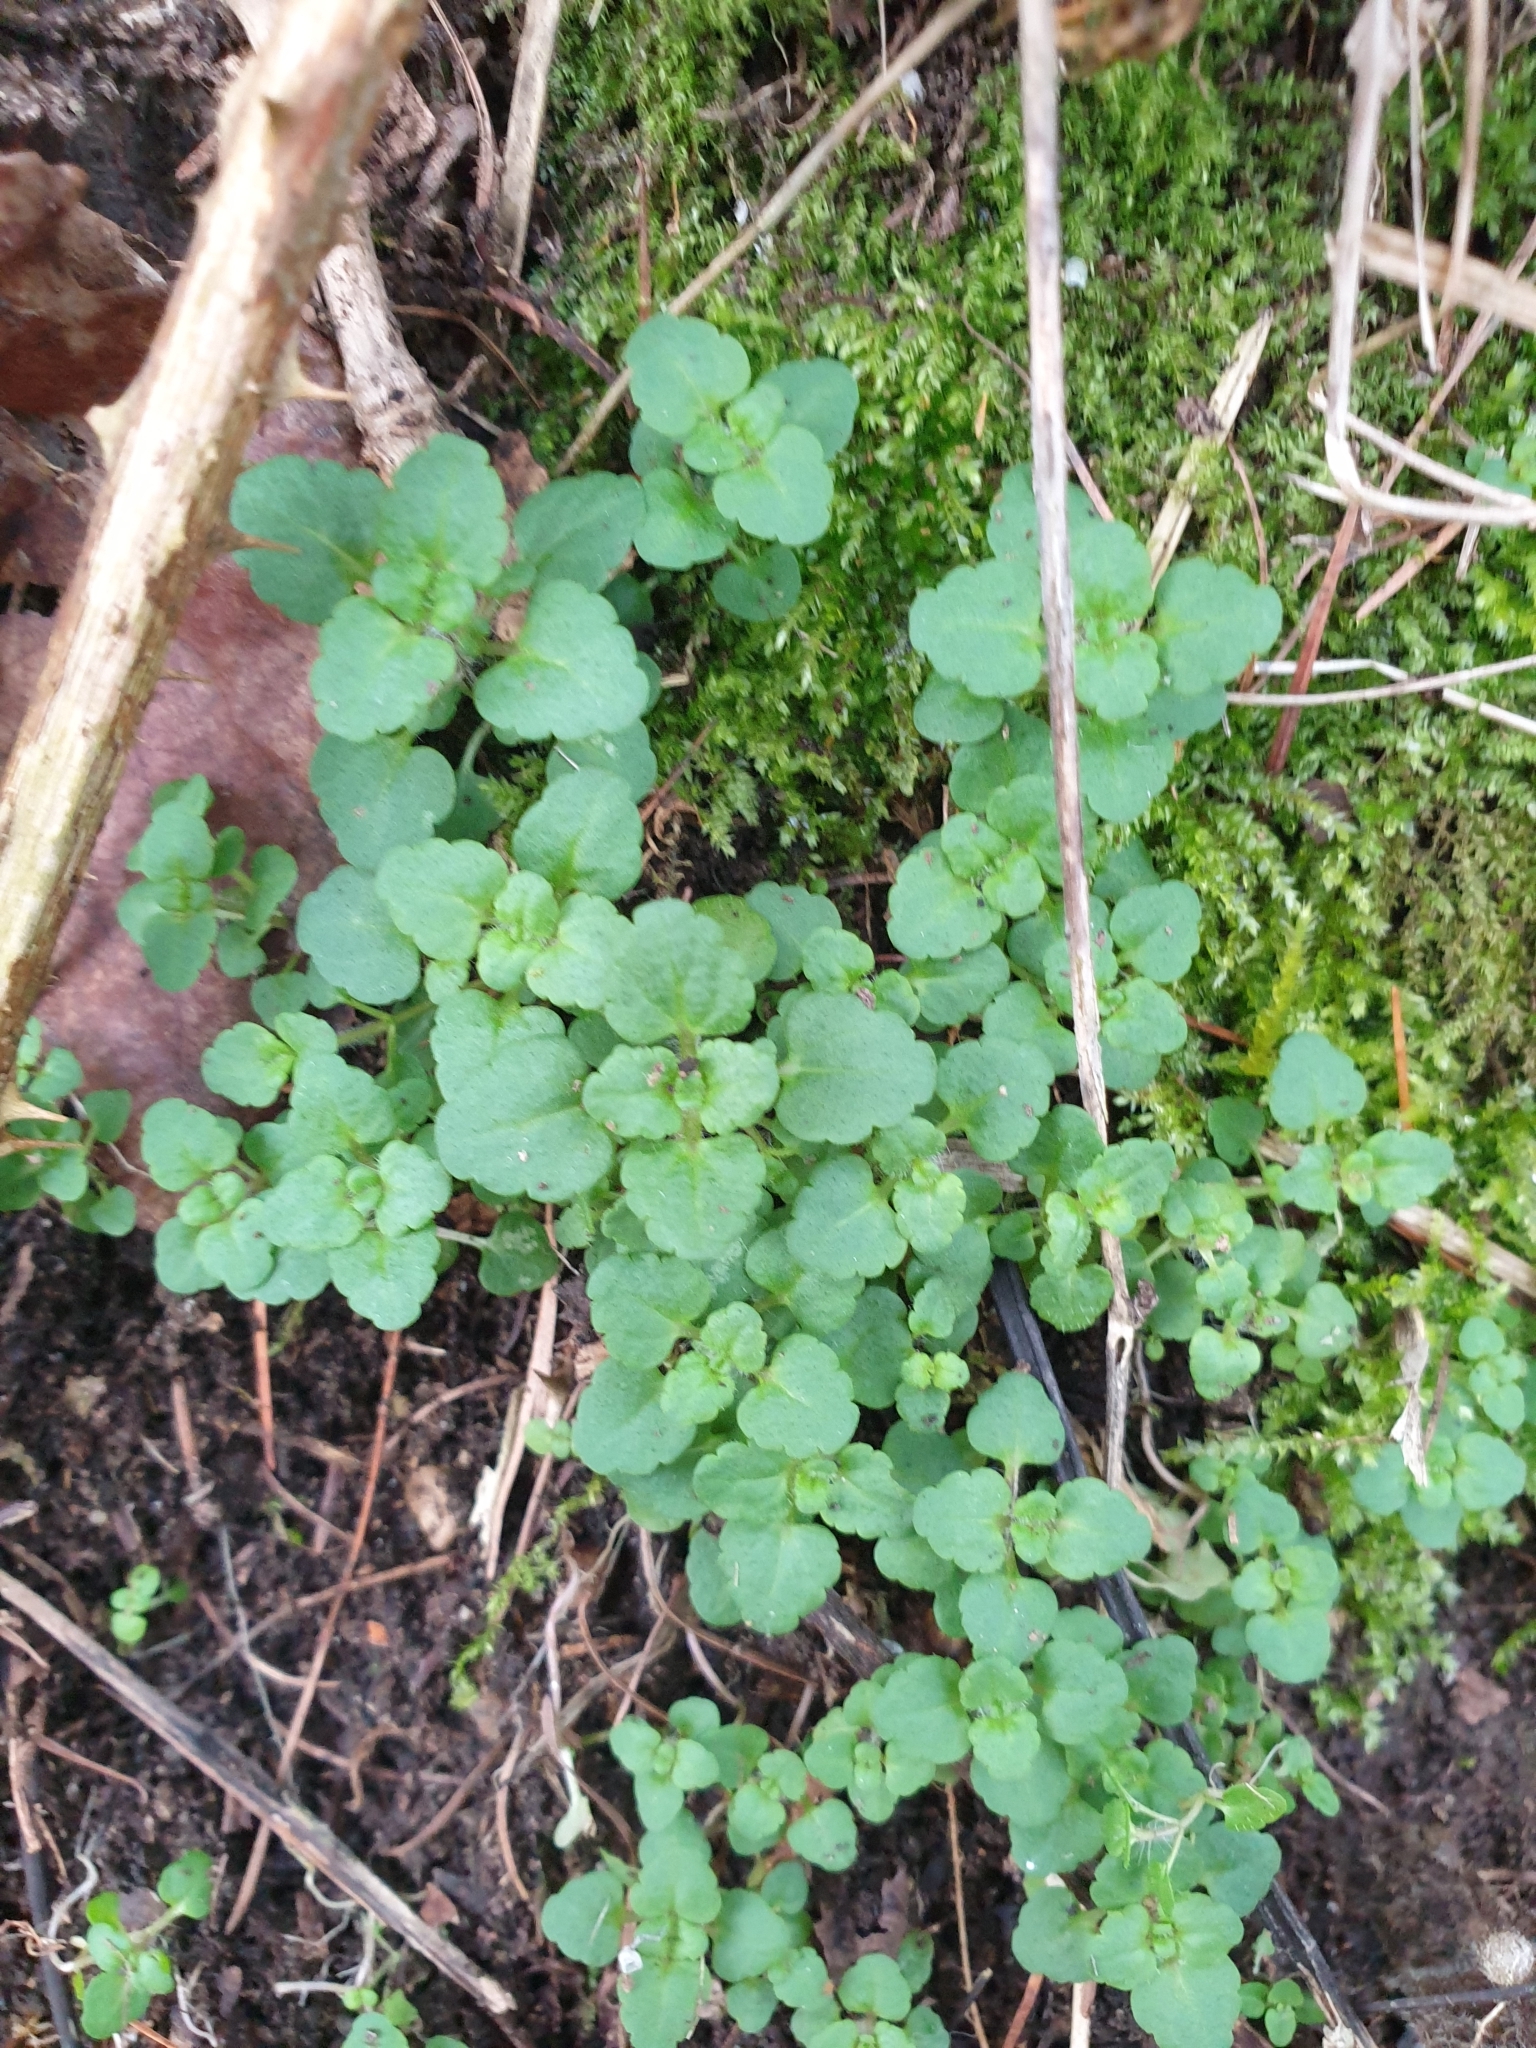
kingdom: Plantae
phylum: Tracheophyta
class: Magnoliopsida
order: Lamiales
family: Plantaginaceae
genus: Veronica
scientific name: Veronica arvensis
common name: Corn speedwell
